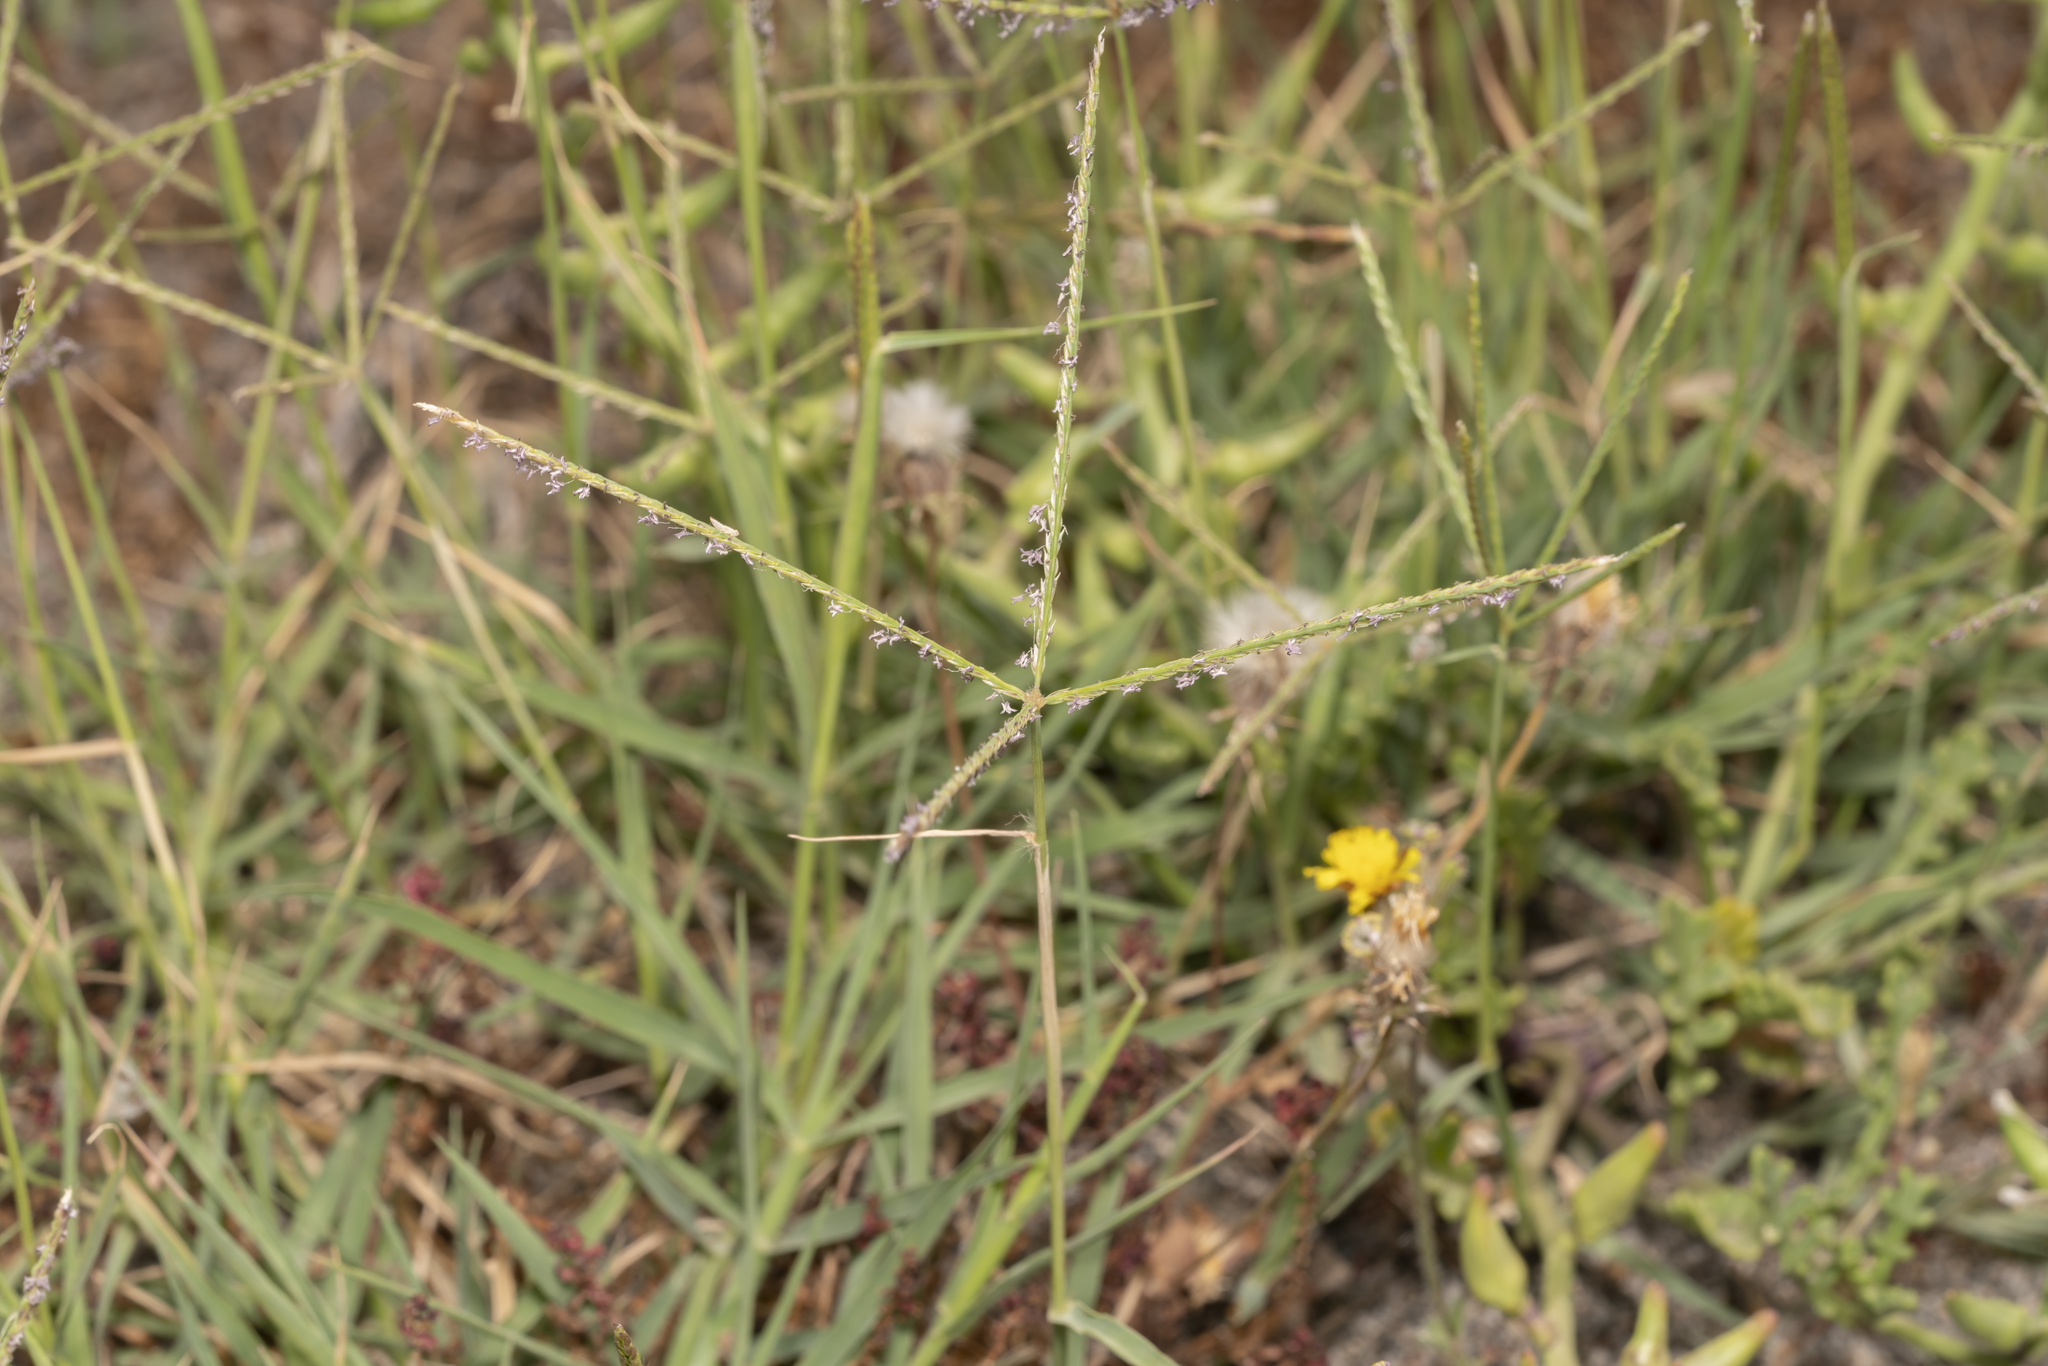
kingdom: Plantae
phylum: Tracheophyta
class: Liliopsida
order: Poales
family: Poaceae
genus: Cynodon
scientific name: Cynodon dactylon
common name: Bermuda grass
